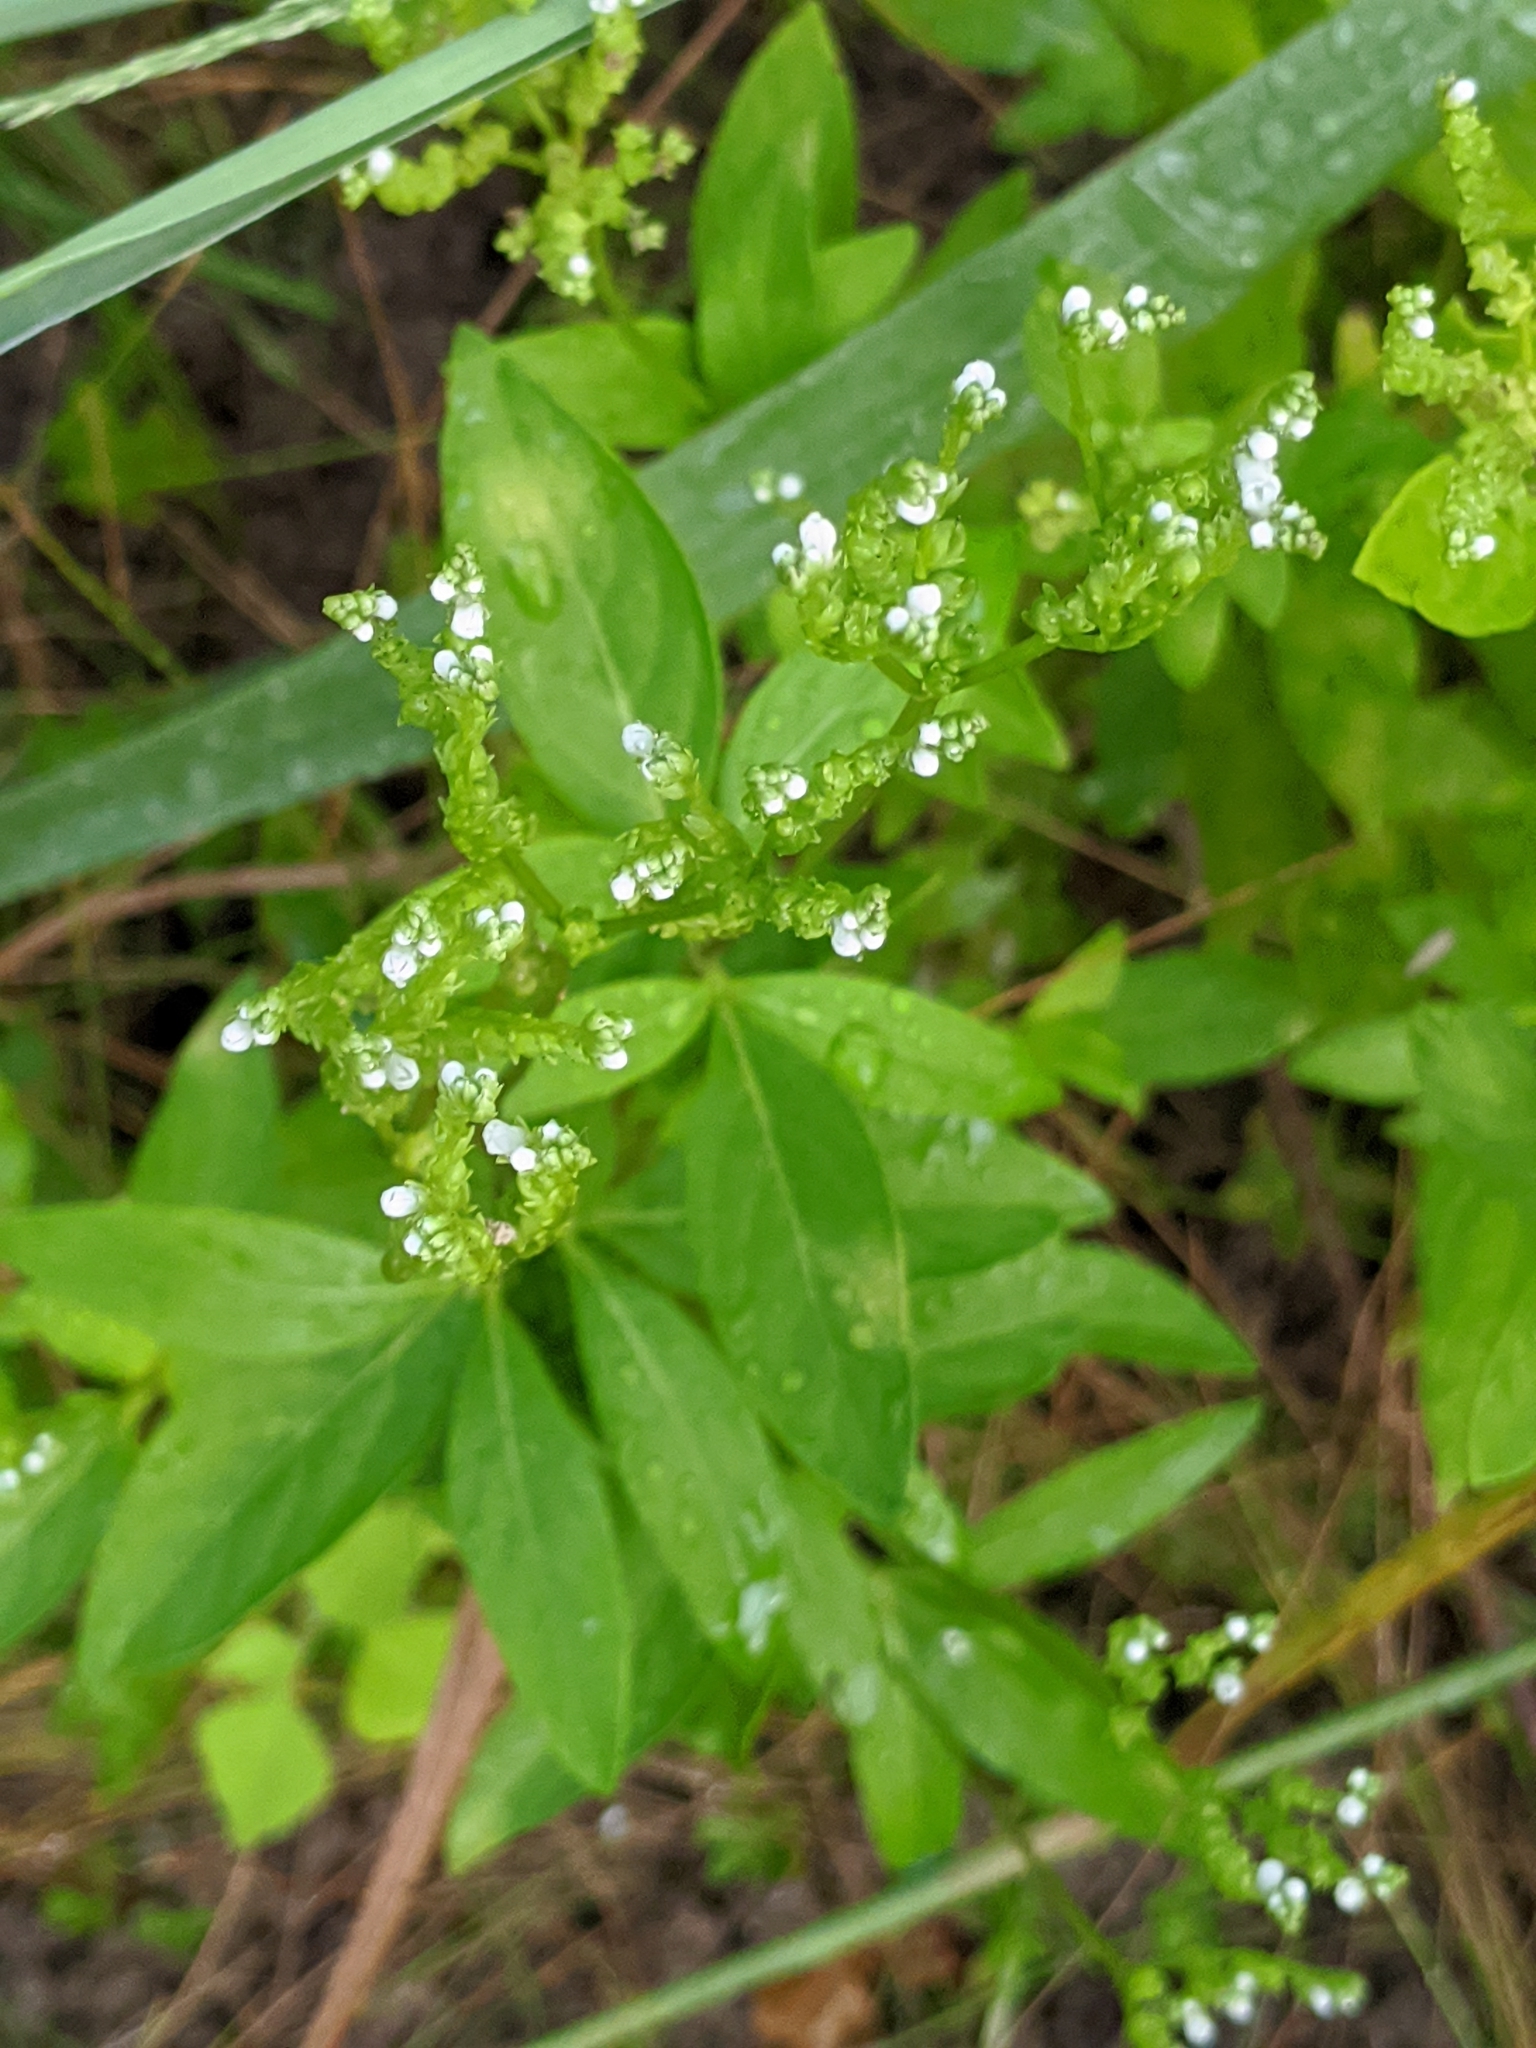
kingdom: Plantae
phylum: Tracheophyta
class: Magnoliopsida
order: Gentianales
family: Loganiaceae
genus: Mitreola
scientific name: Mitreola petiolata
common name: Lax hornpod
